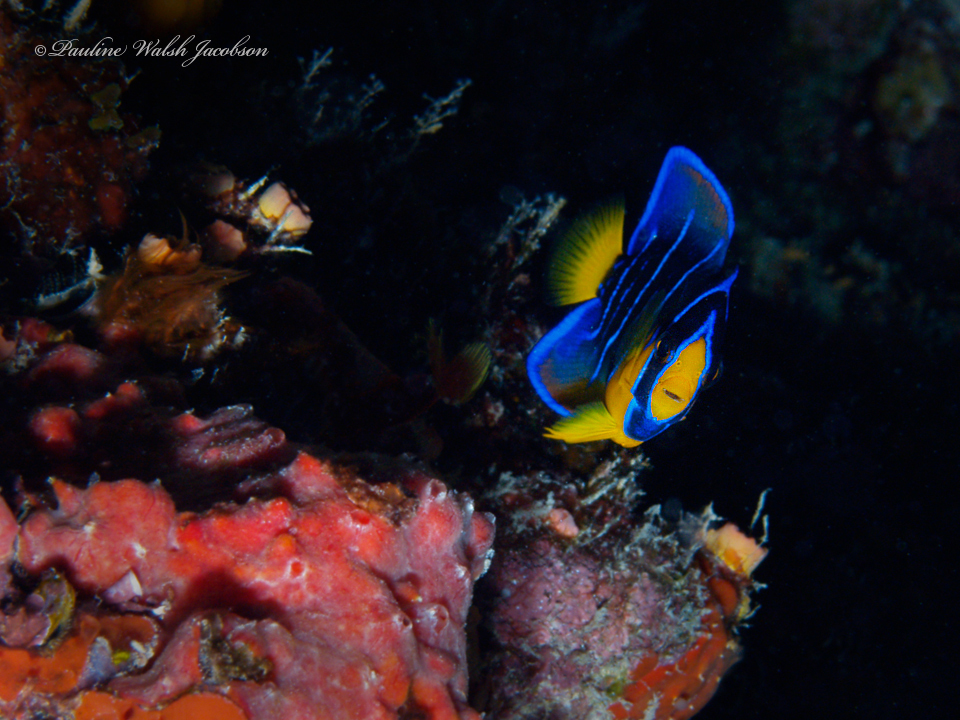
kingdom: Animalia
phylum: Chordata
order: Perciformes
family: Pomacanthidae
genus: Holacanthus
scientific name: Holacanthus ciliaris
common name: Queen angelfish
